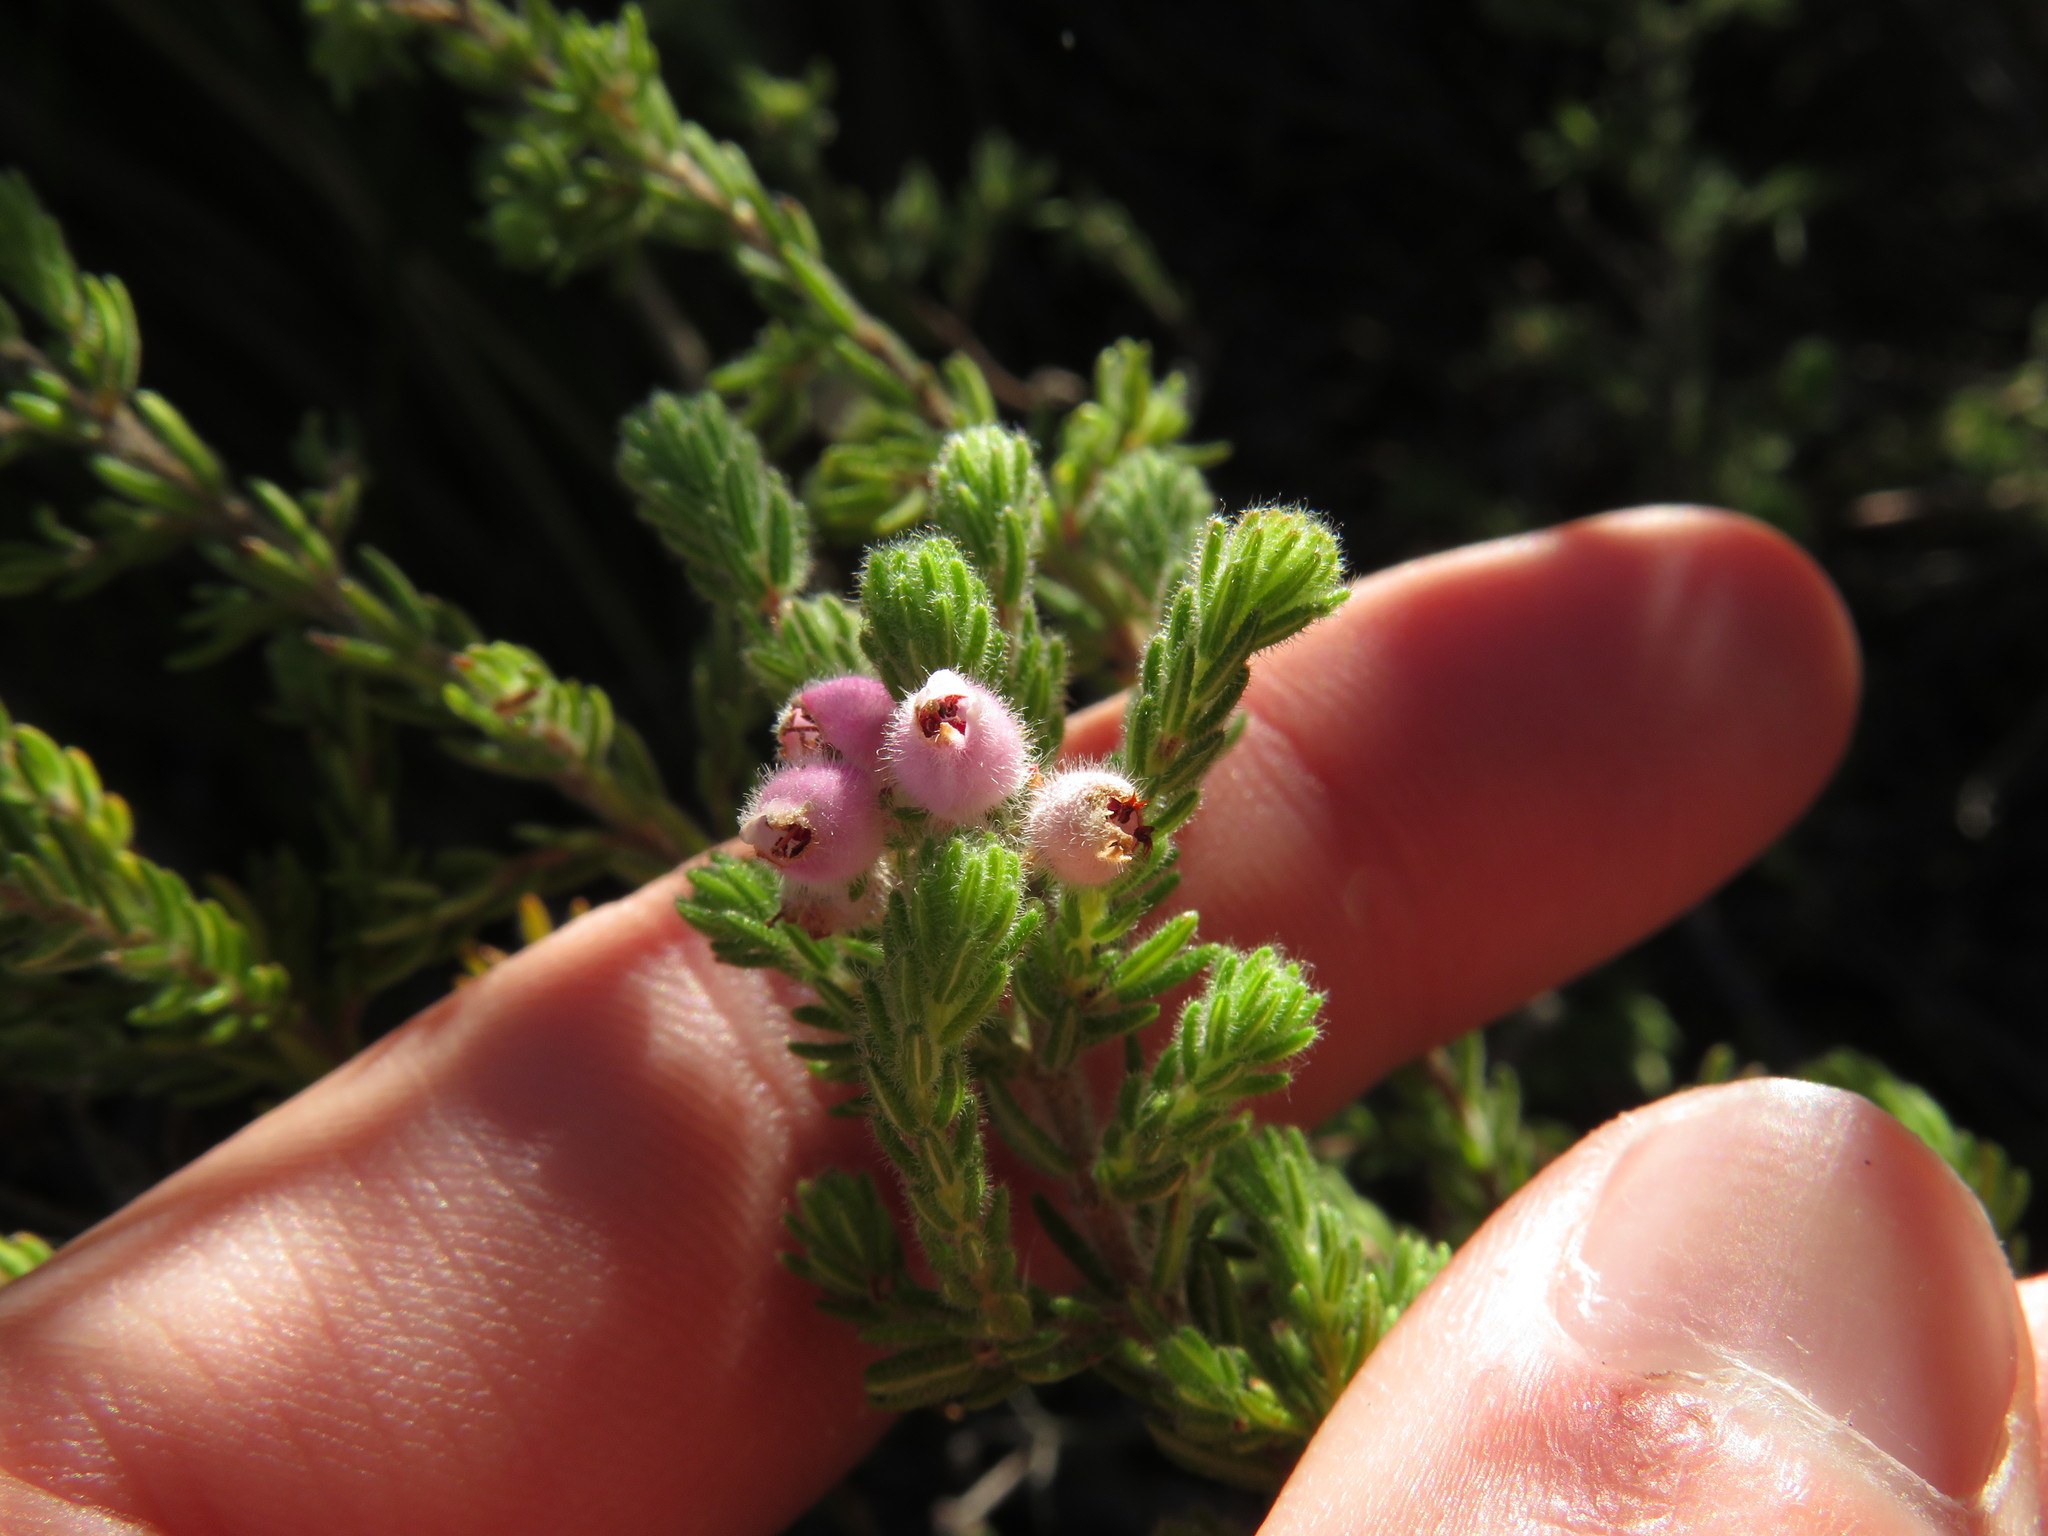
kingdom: Plantae
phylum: Tracheophyta
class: Magnoliopsida
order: Ericales
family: Ericaceae
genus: Erica
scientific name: Erica hirtiflora
